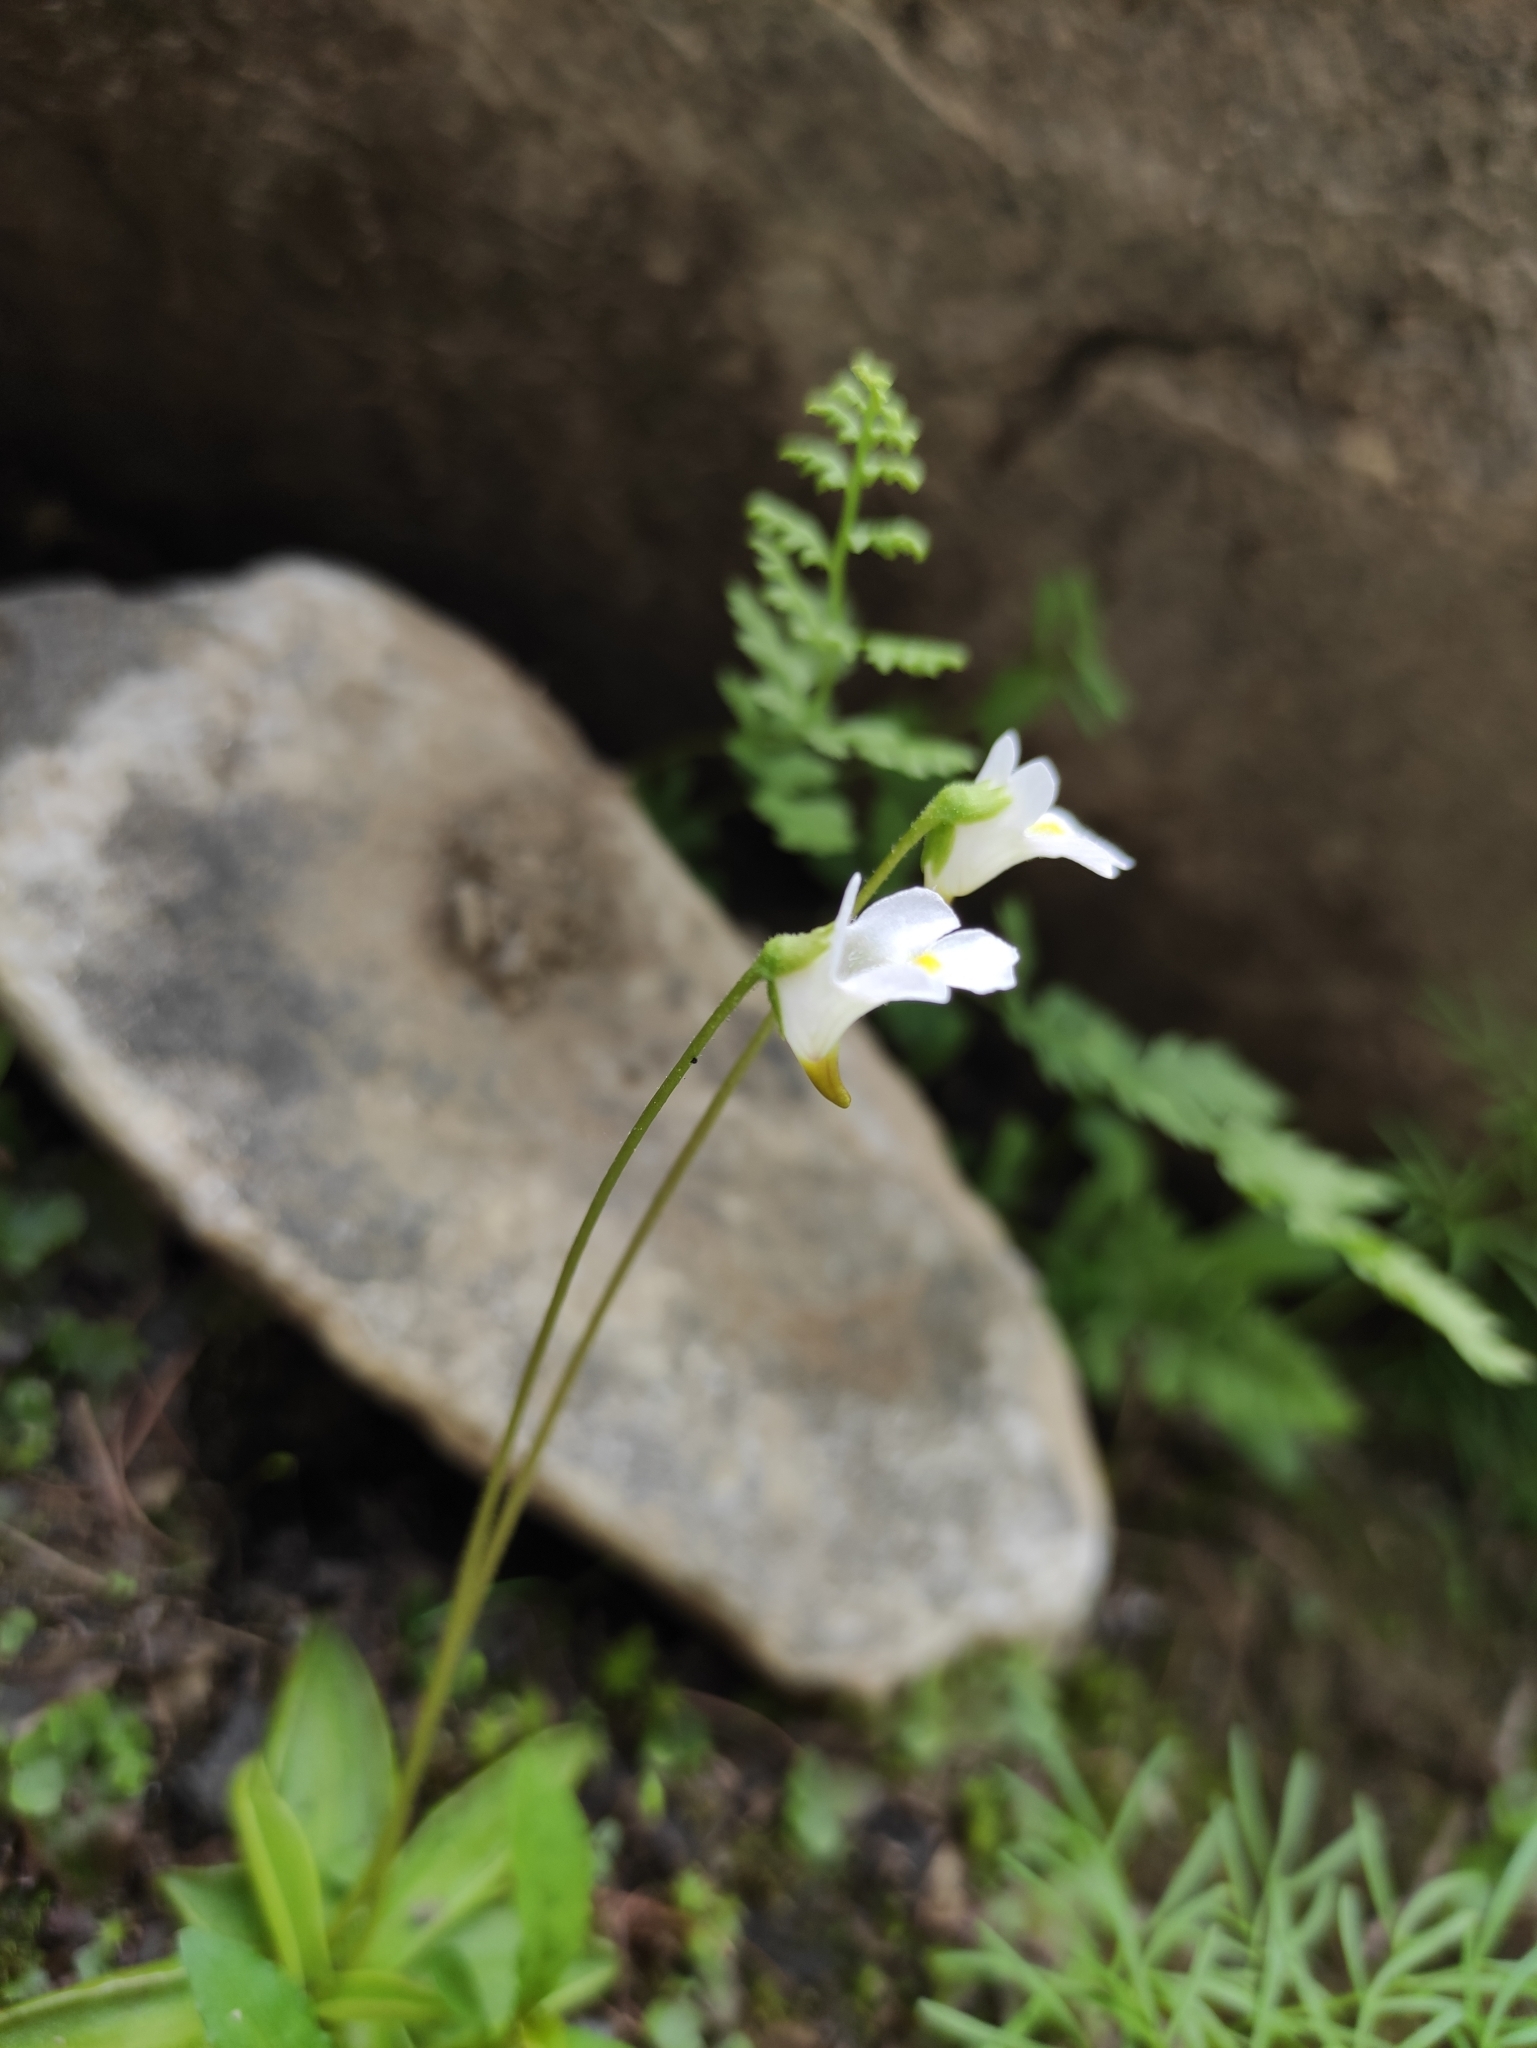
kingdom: Plantae
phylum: Tracheophyta
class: Magnoliopsida
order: Lamiales
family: Lentibulariaceae
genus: Pinguicula
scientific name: Pinguicula alpina
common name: Alpine butterwort
